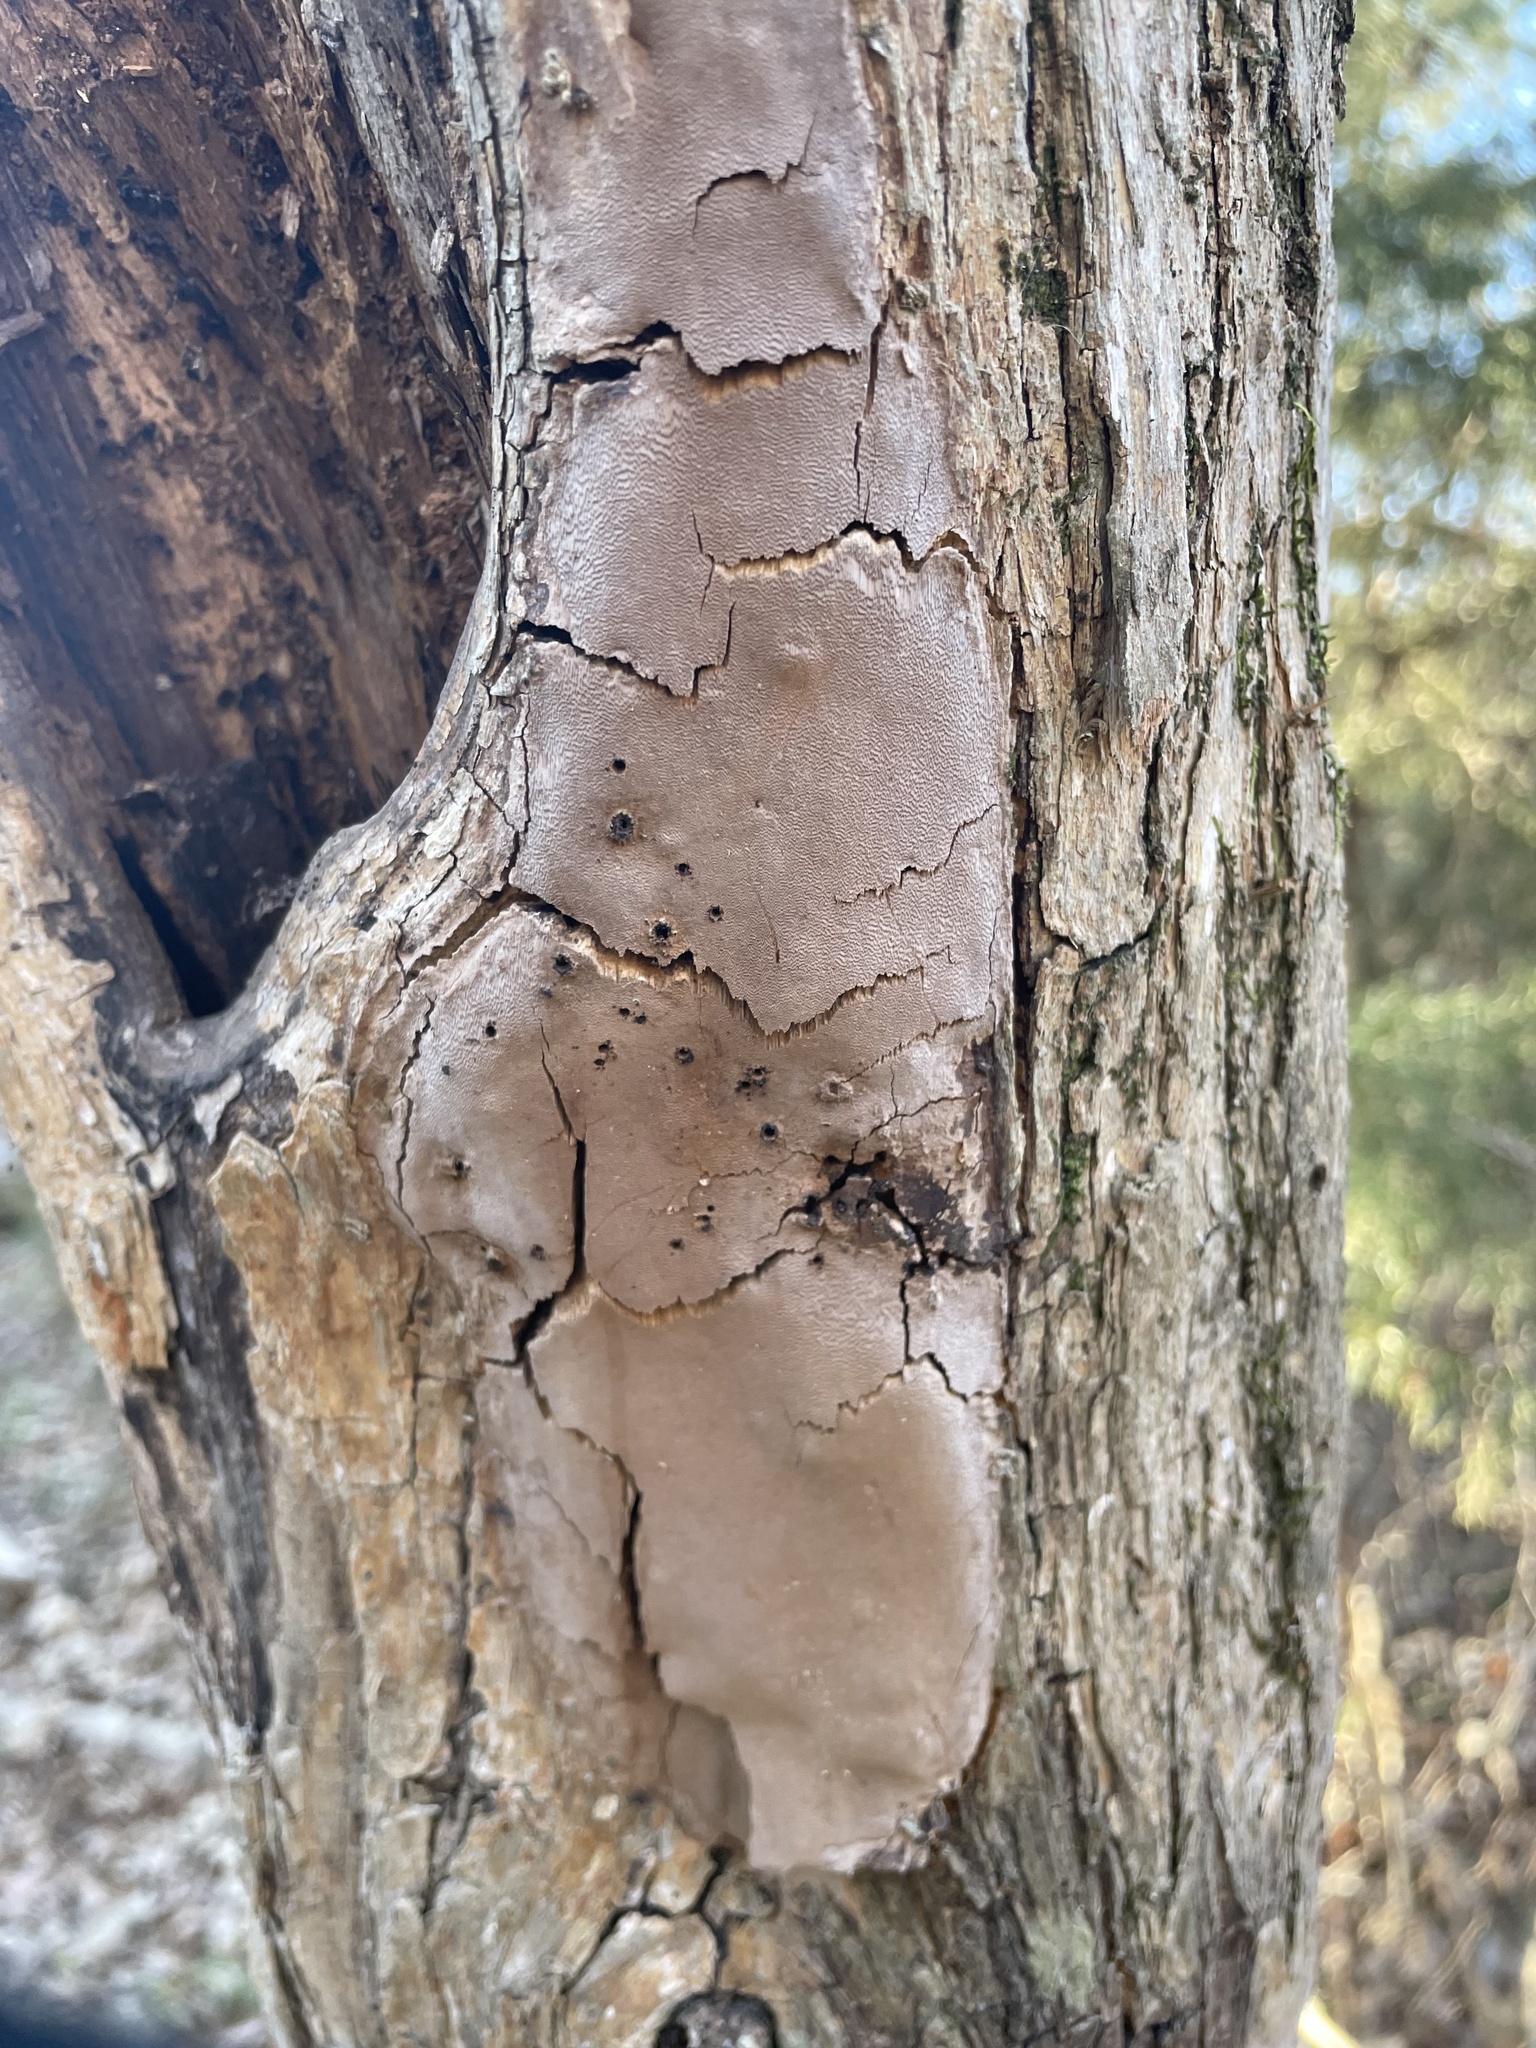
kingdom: Fungi
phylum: Basidiomycota
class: Agaricomycetes
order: Hymenochaetales
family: Hymenochaetaceae
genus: Fomitiporia
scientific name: Fomitiporia punctata
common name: Elbowpatch crust
